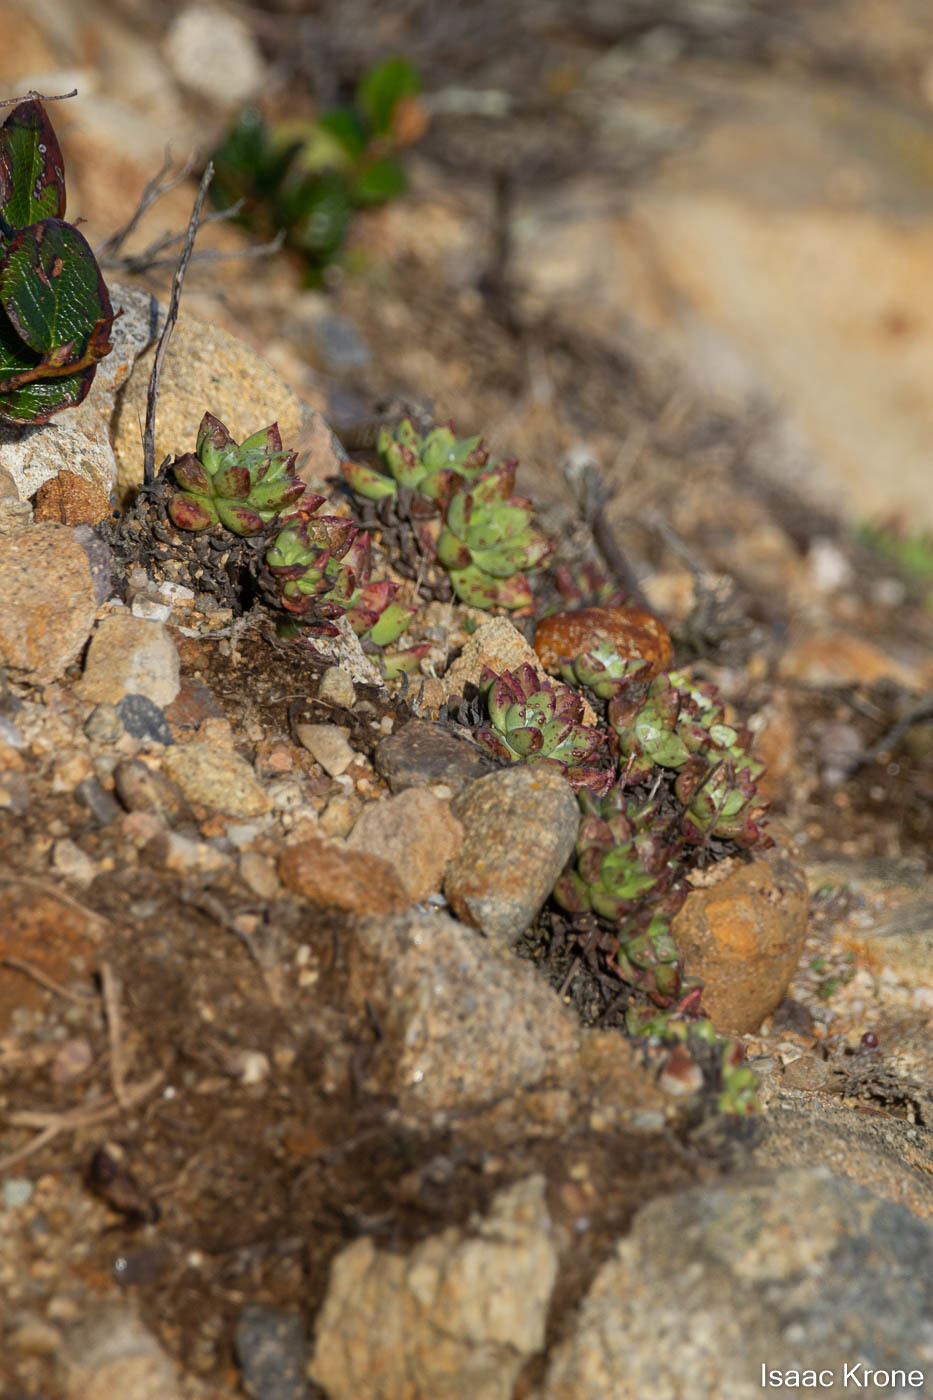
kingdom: Plantae
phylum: Tracheophyta
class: Magnoliopsida
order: Saxifragales
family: Crassulaceae
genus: Dudleya
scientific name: Dudleya farinosa
